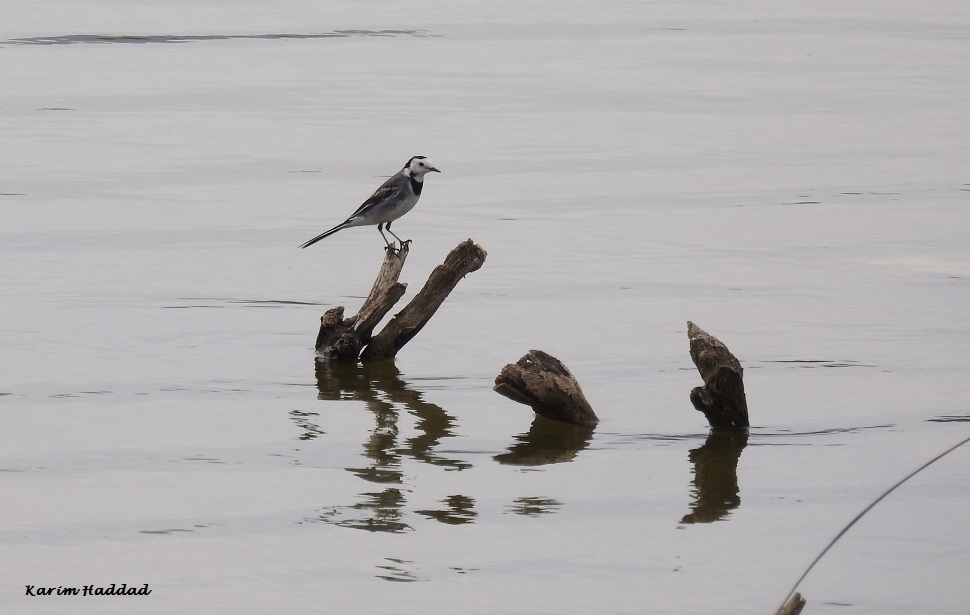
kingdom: Animalia
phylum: Chordata
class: Aves
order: Passeriformes
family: Motacillidae
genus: Motacilla
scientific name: Motacilla alba
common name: White wagtail
